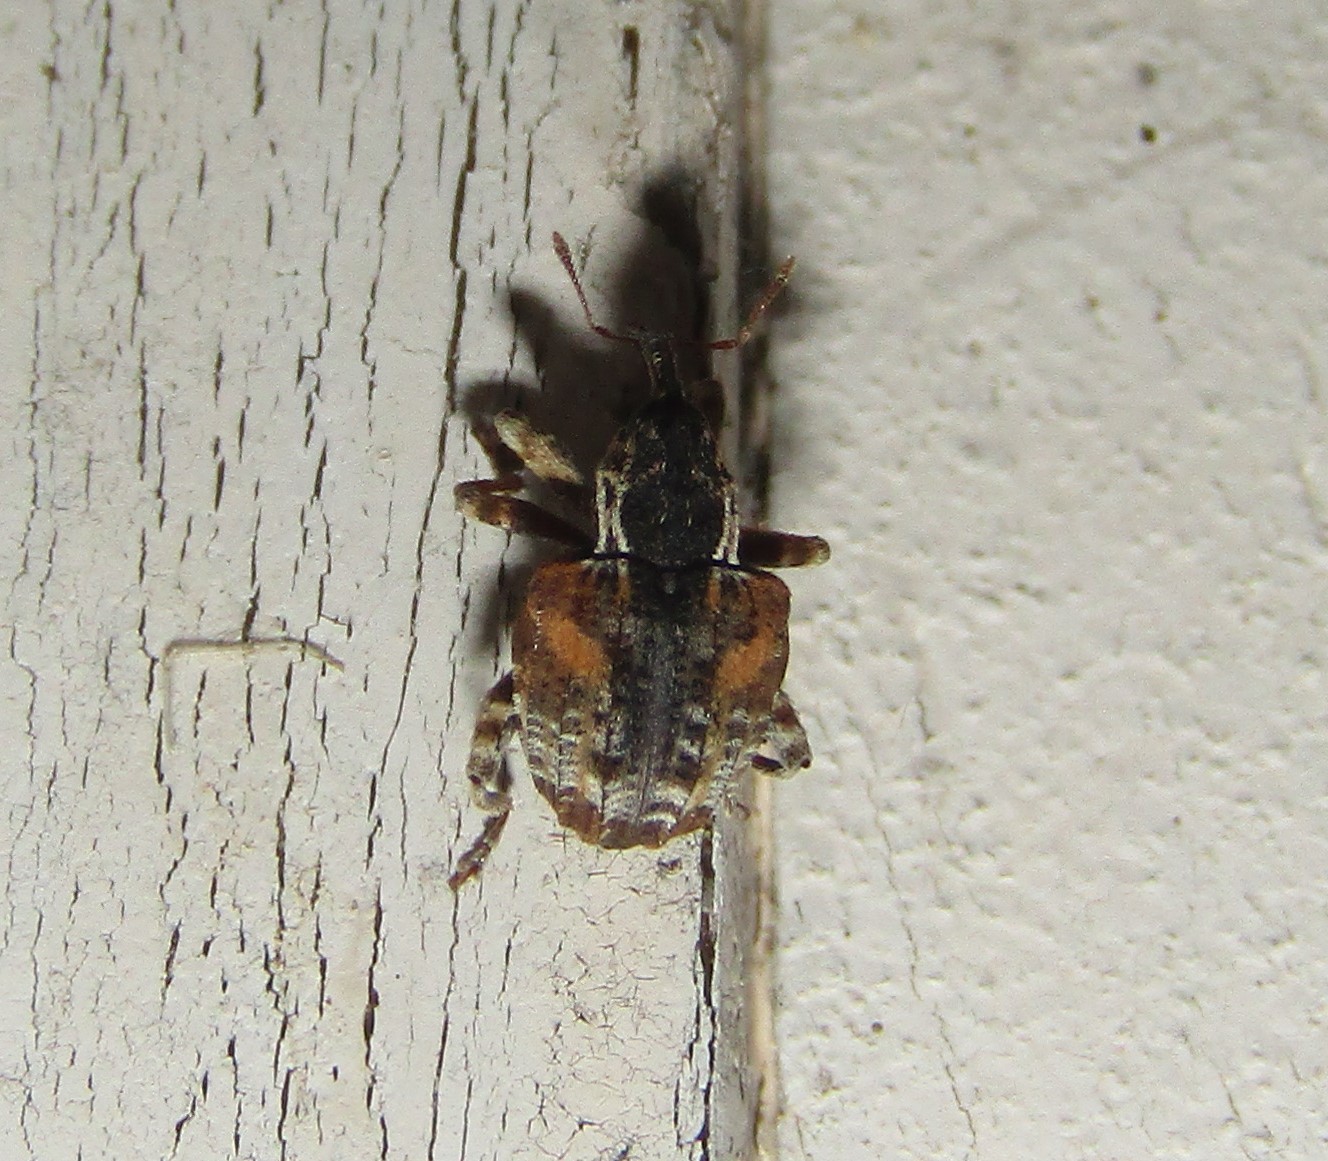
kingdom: Animalia
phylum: Arthropoda
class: Insecta
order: Coleoptera
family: Curculionidae
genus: Conotrachelus
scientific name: Conotrachelus anaglypticus
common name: Cambium curculio
